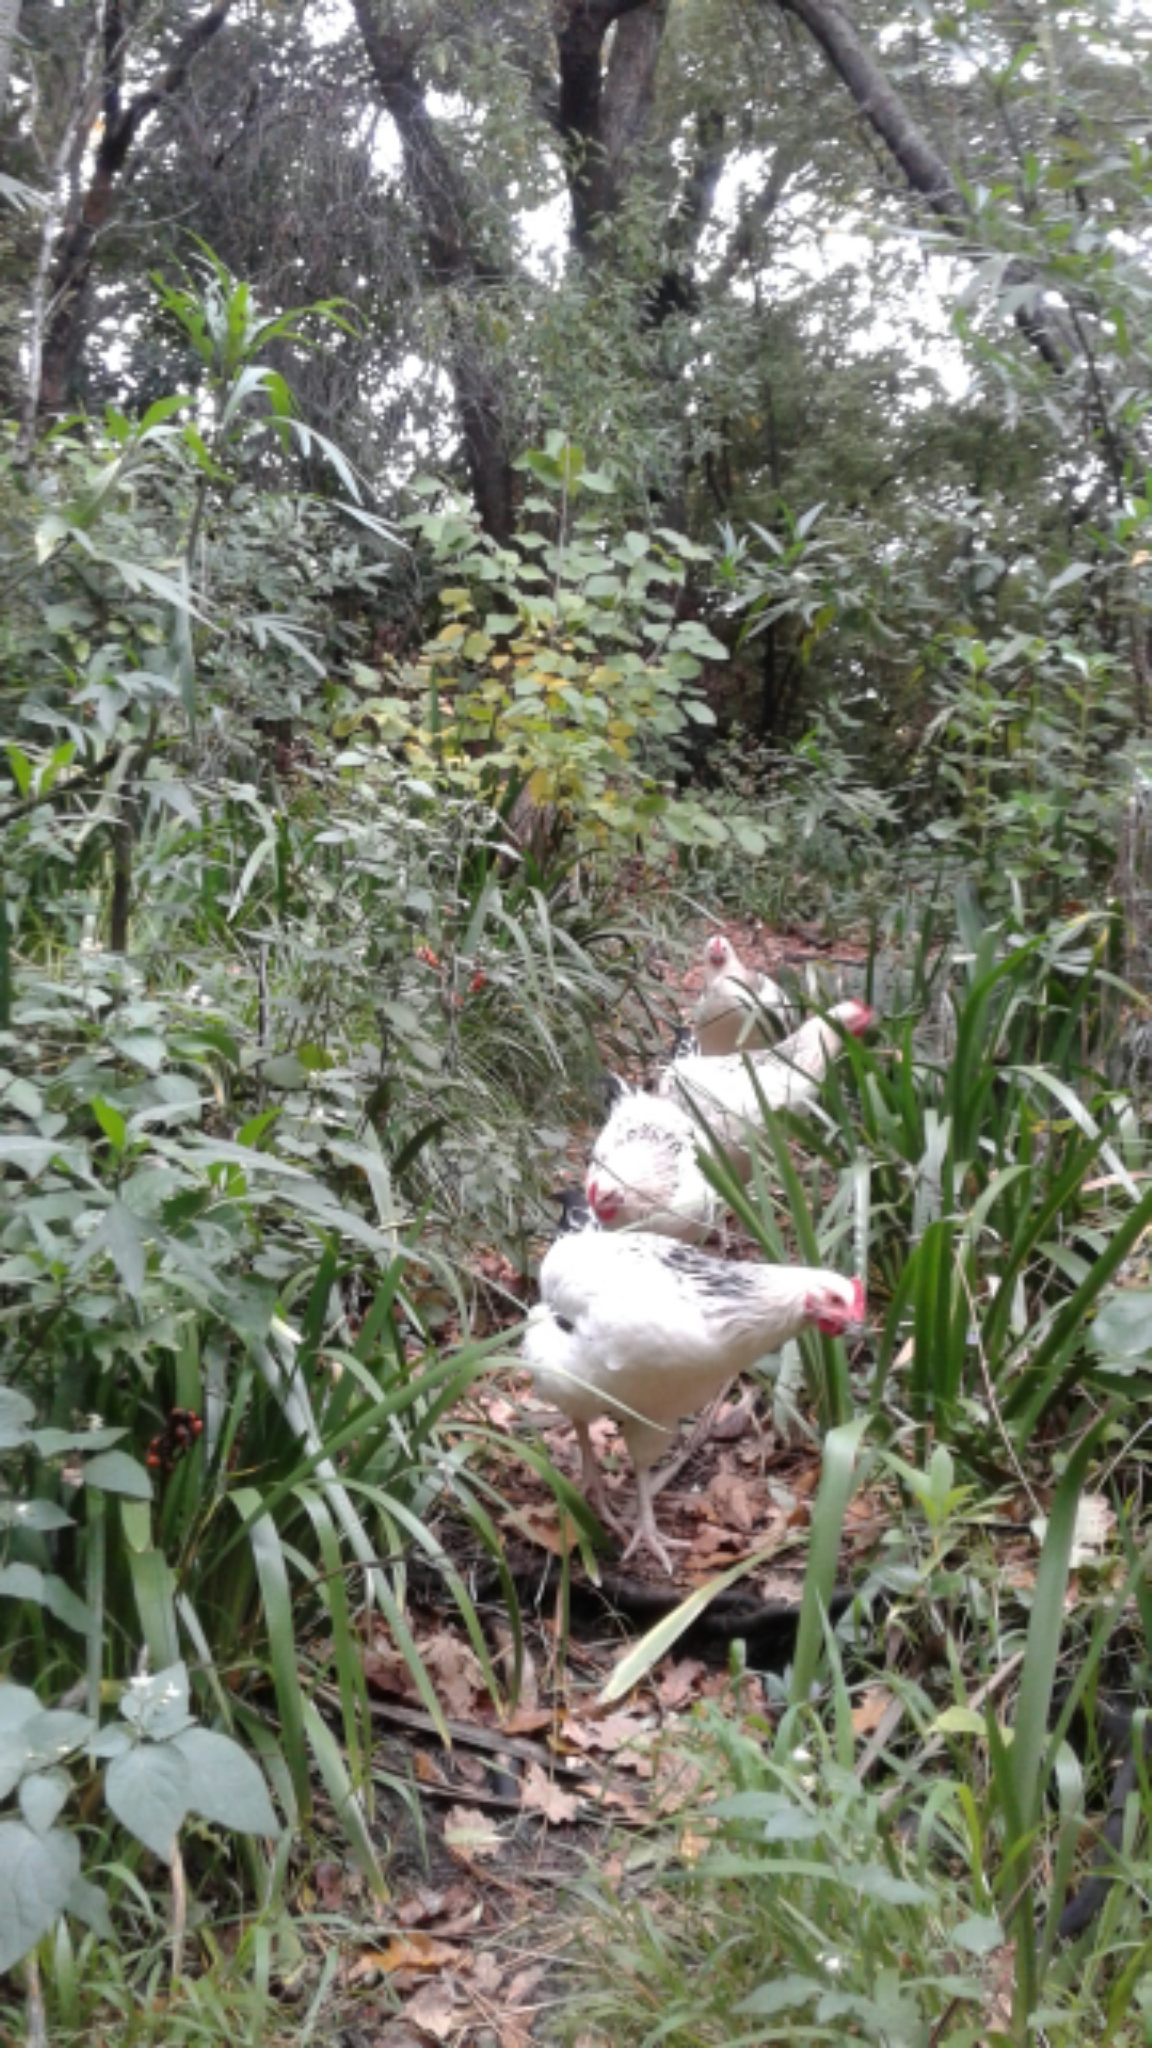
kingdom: Animalia
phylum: Chordata
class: Aves
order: Galliformes
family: Phasianidae
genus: Gallus
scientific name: Gallus gallus
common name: Red junglefowl
